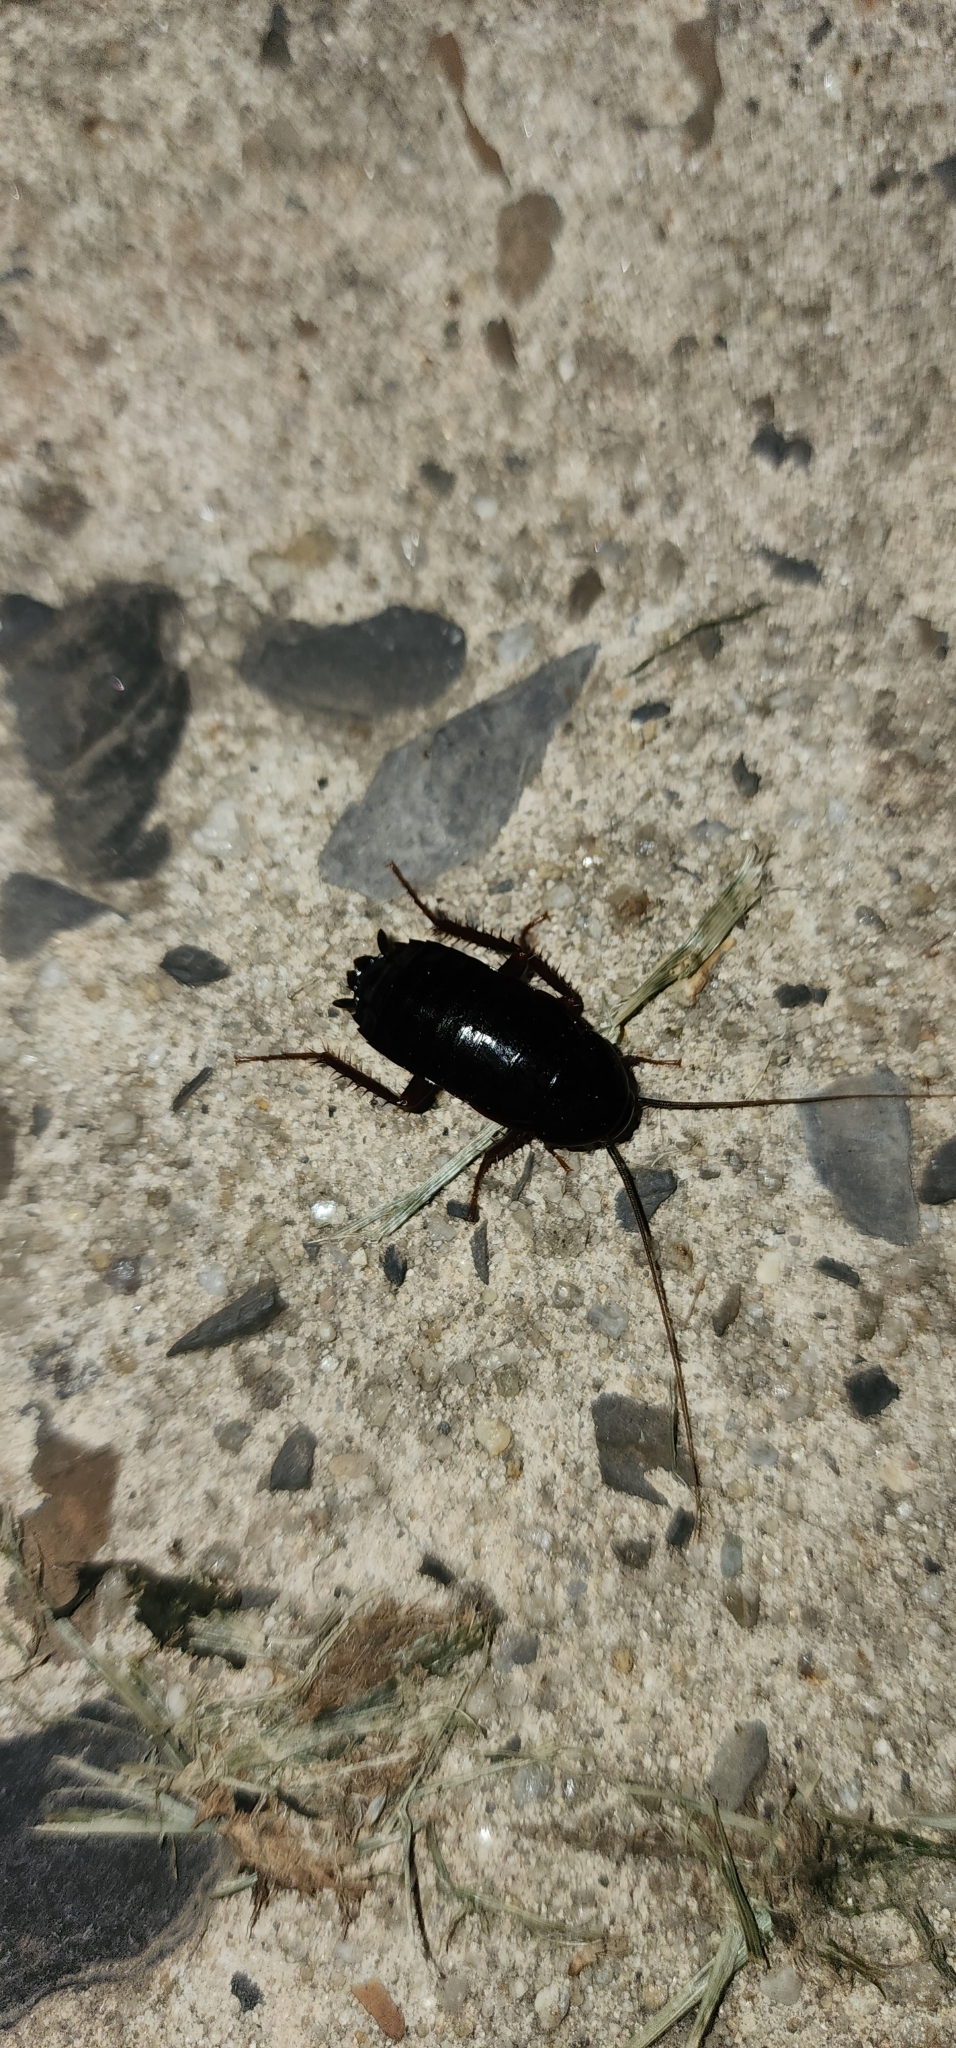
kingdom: Animalia
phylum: Arthropoda
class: Insecta
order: Blattodea
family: Blattidae
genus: Blatta
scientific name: Blatta orientalis
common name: Oriental cockroach
